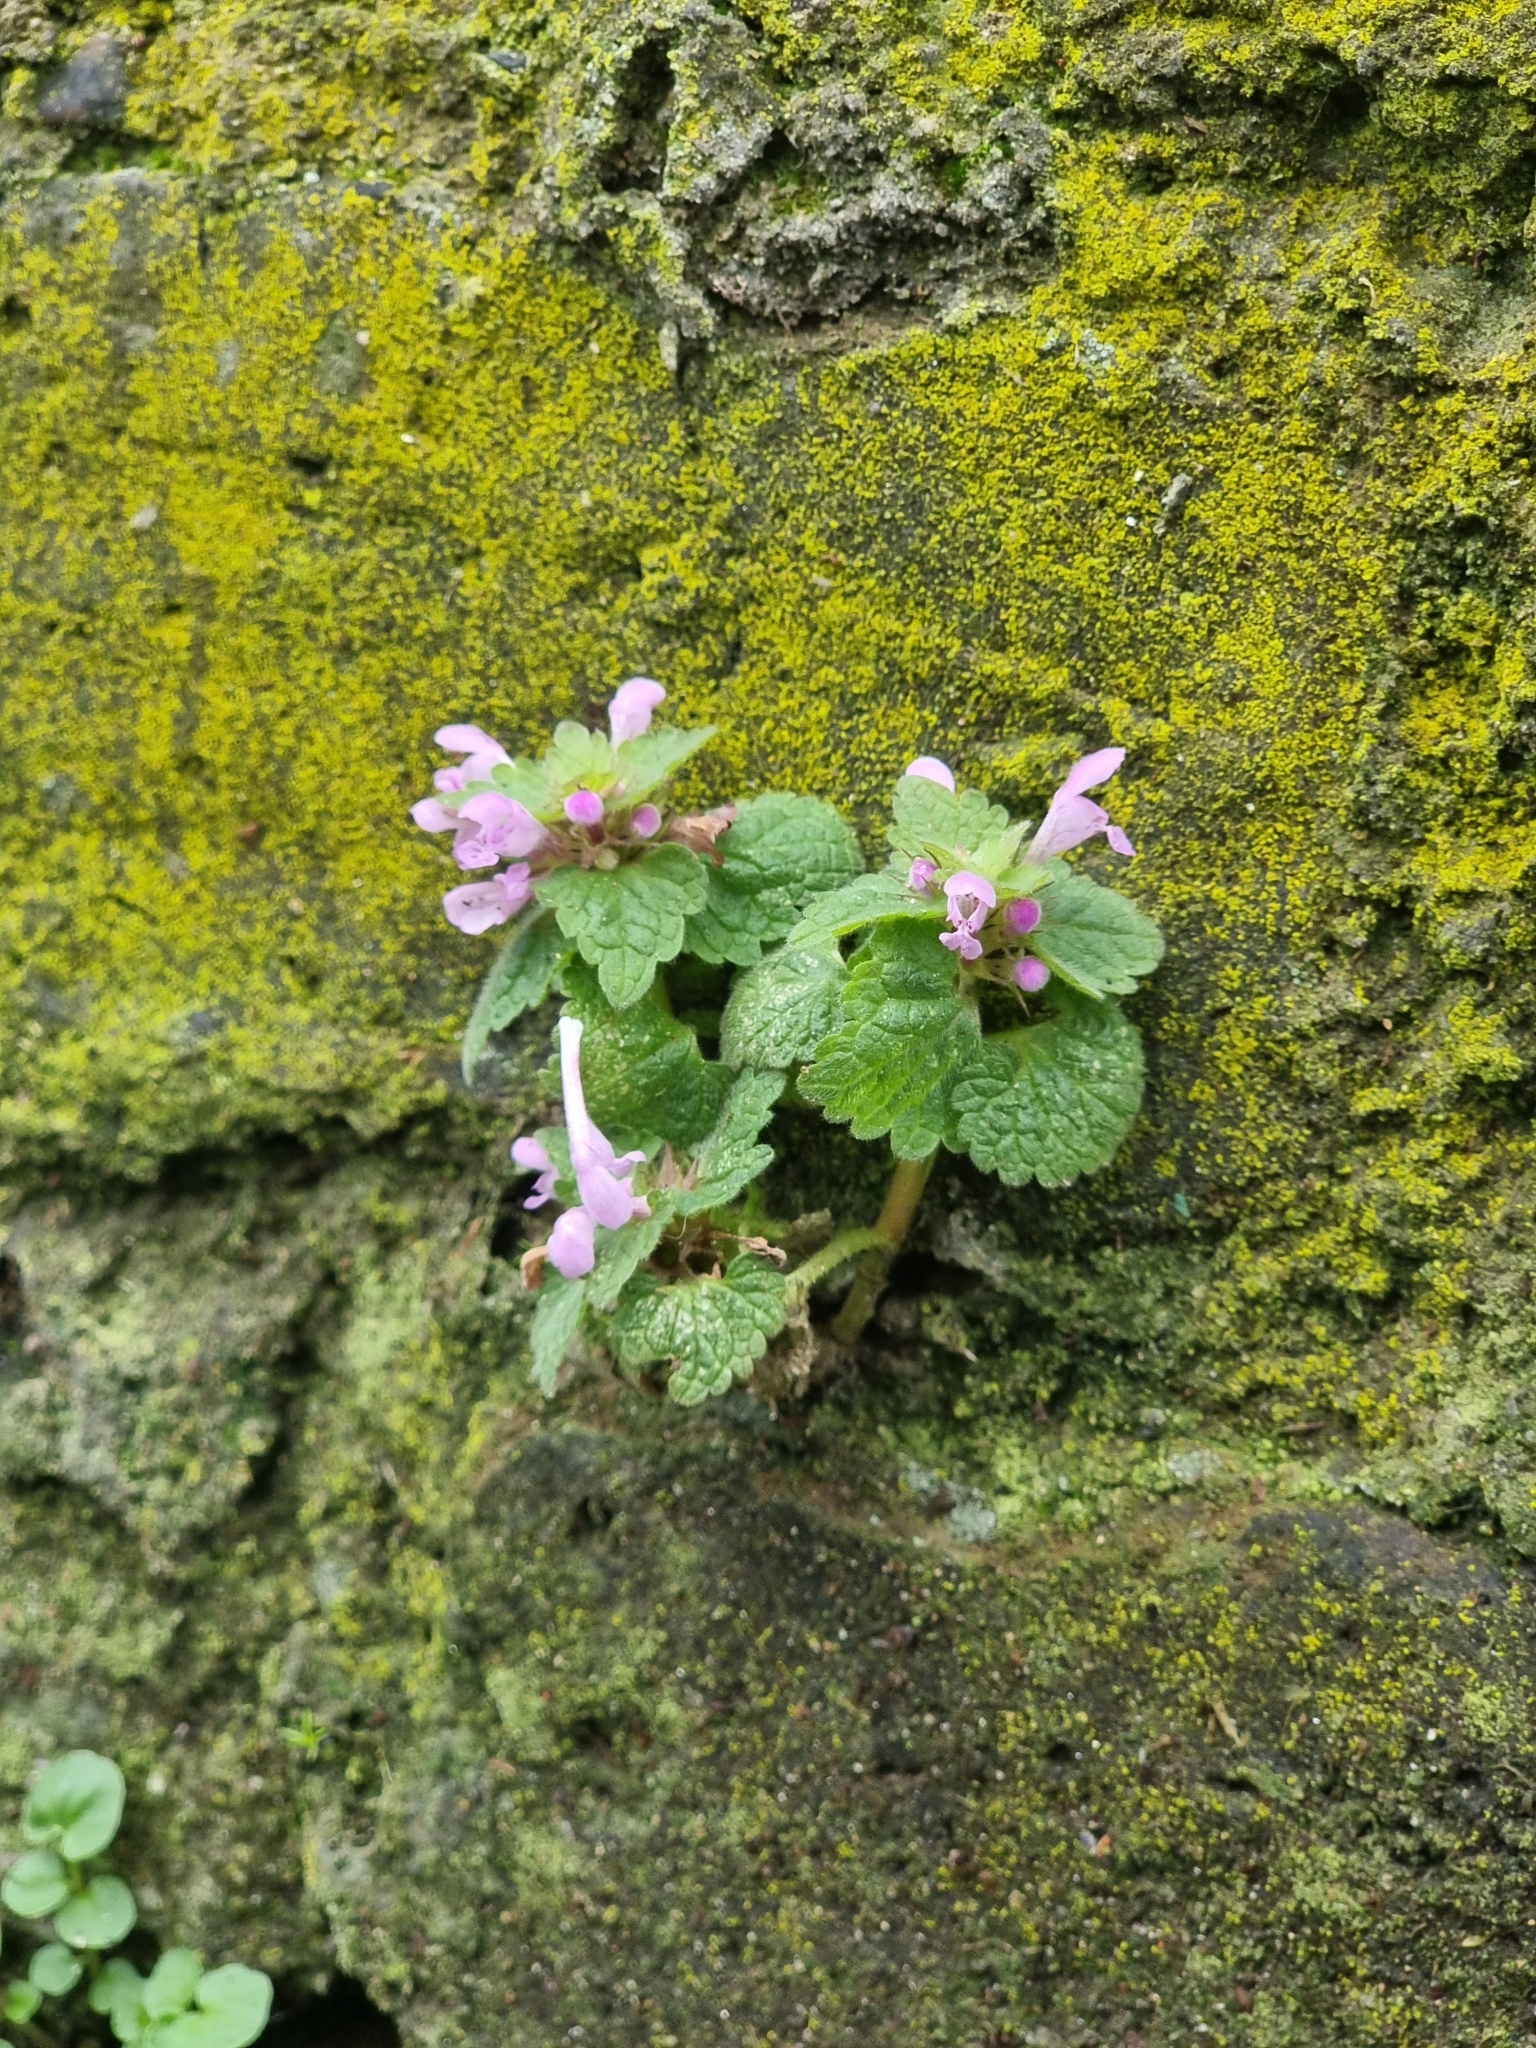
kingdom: Plantae
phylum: Tracheophyta
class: Magnoliopsida
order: Lamiales
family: Lamiaceae
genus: Lamium
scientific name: Lamium purpureum
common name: Red dead-nettle
